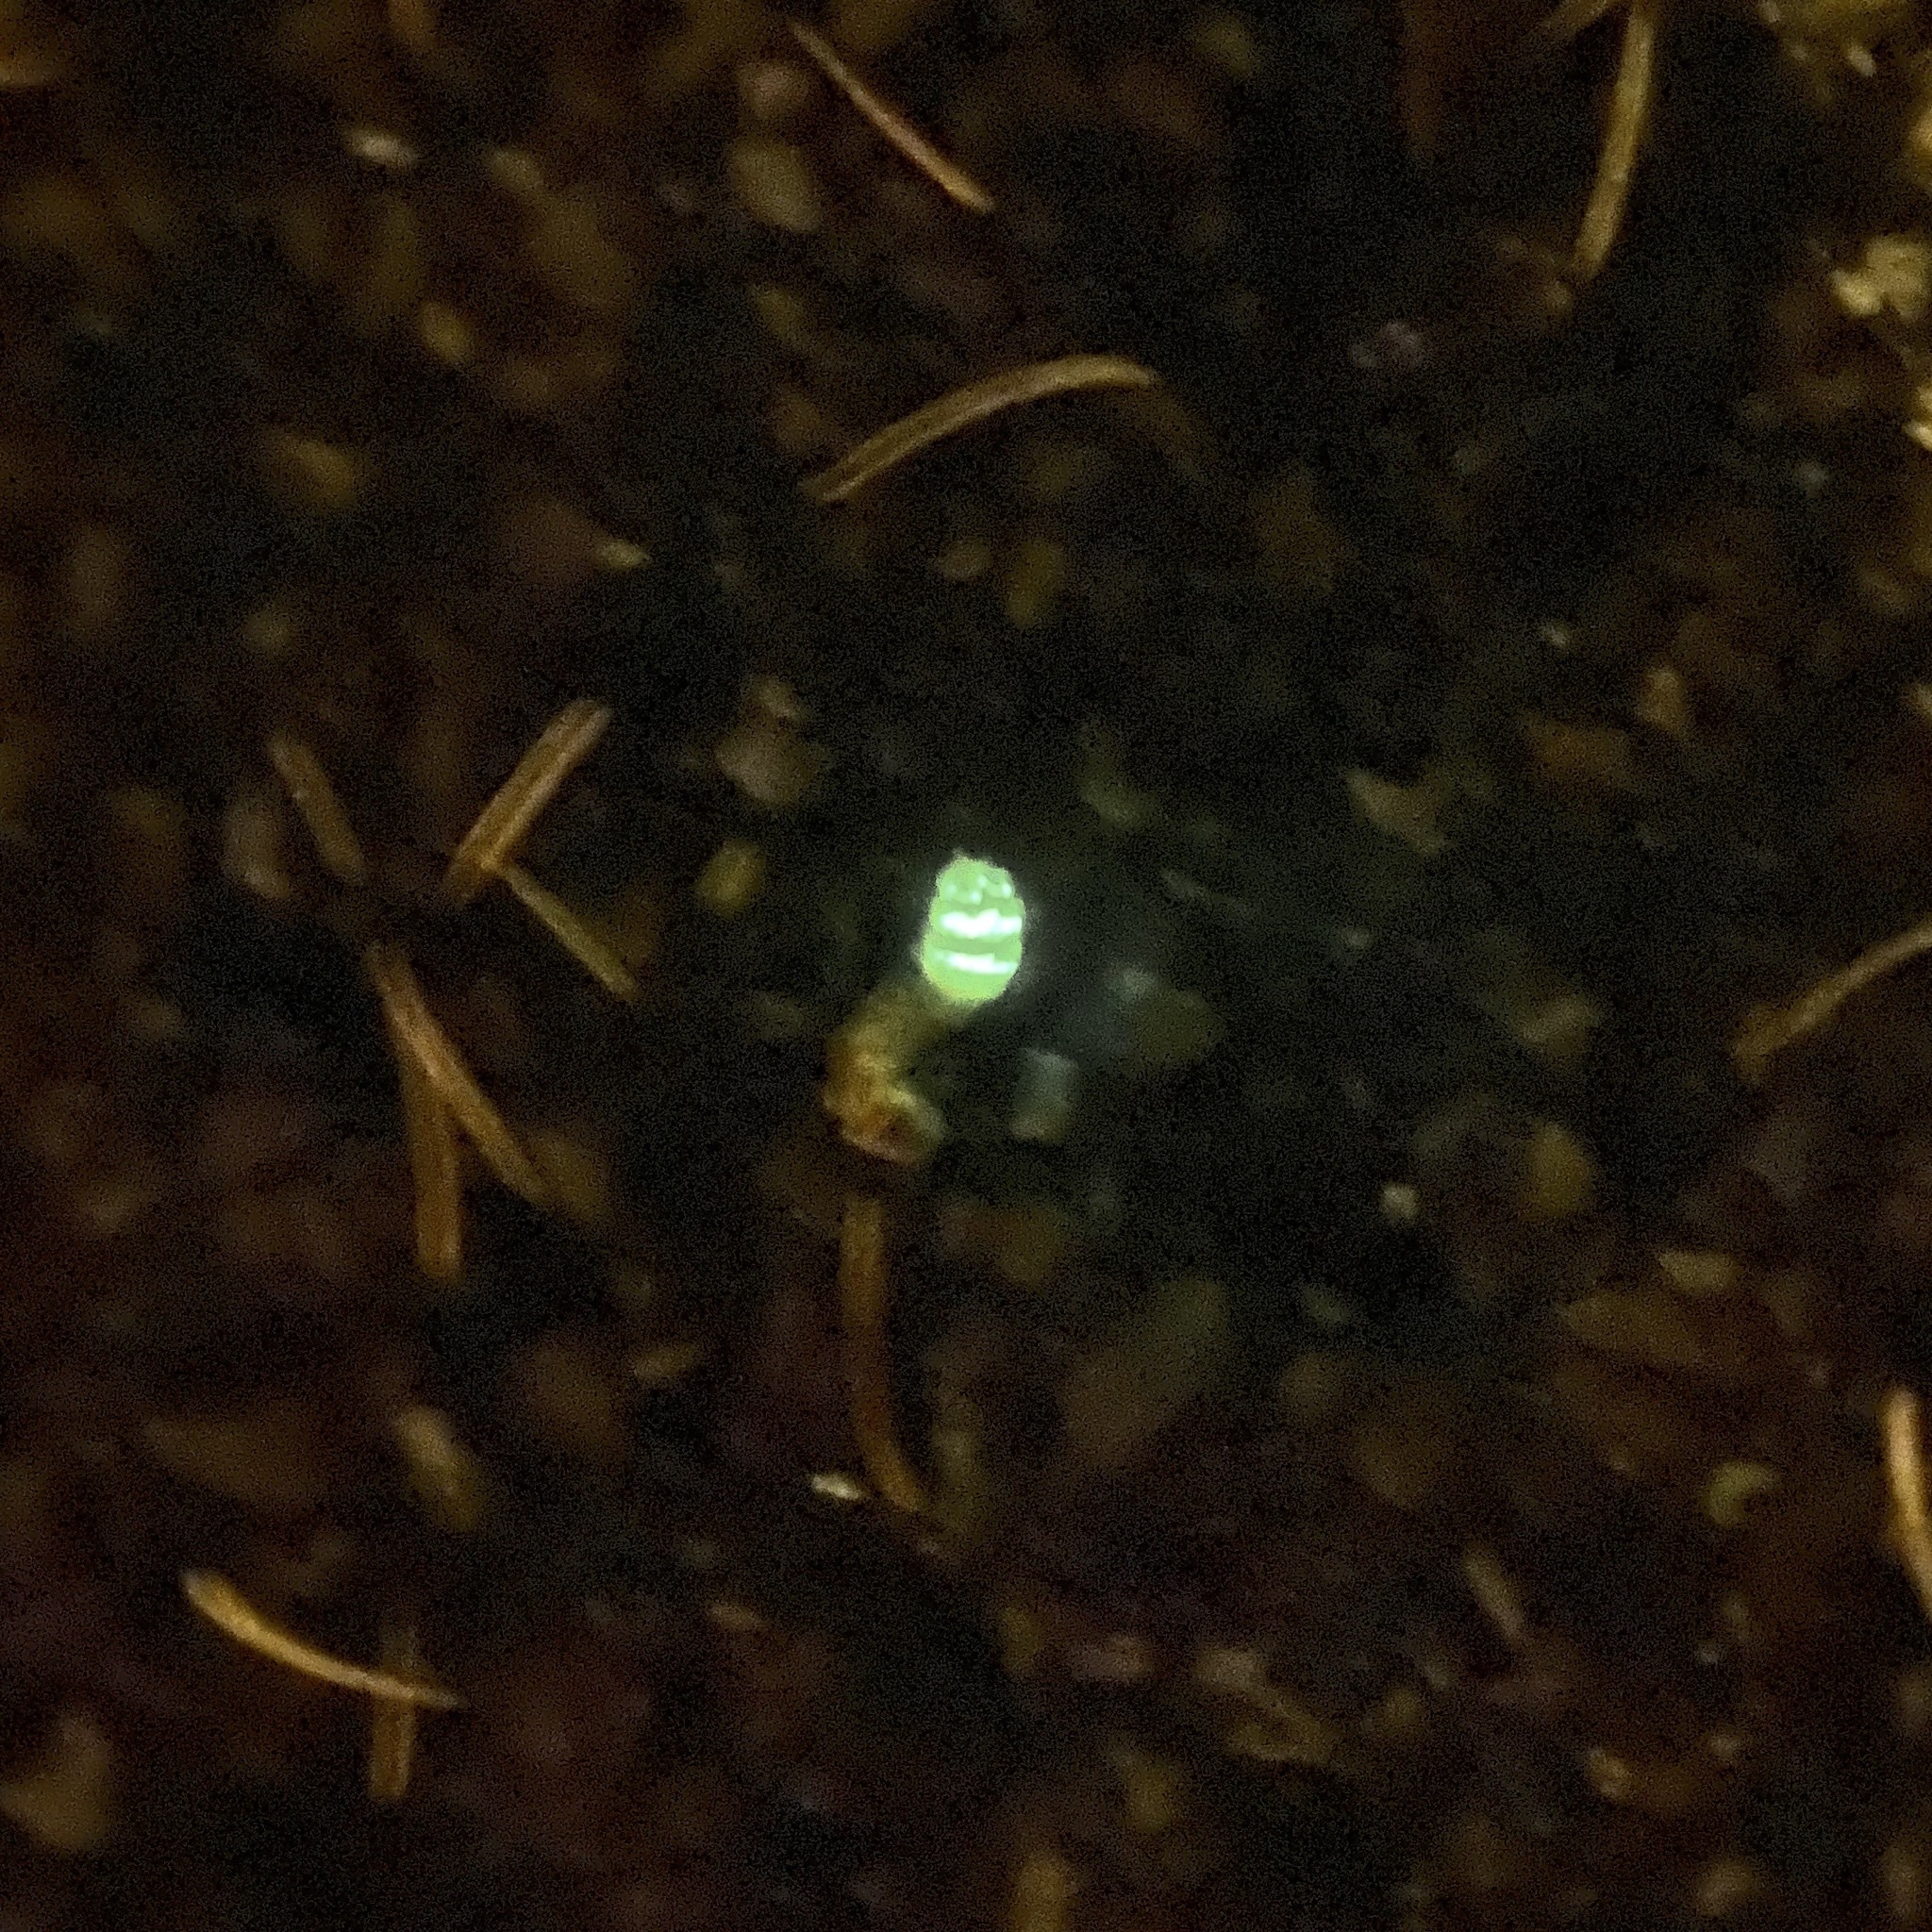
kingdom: Animalia
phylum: Arthropoda
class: Insecta
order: Coleoptera
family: Lampyridae
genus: Lampyris
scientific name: Lampyris noctiluca
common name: Glow-worm
